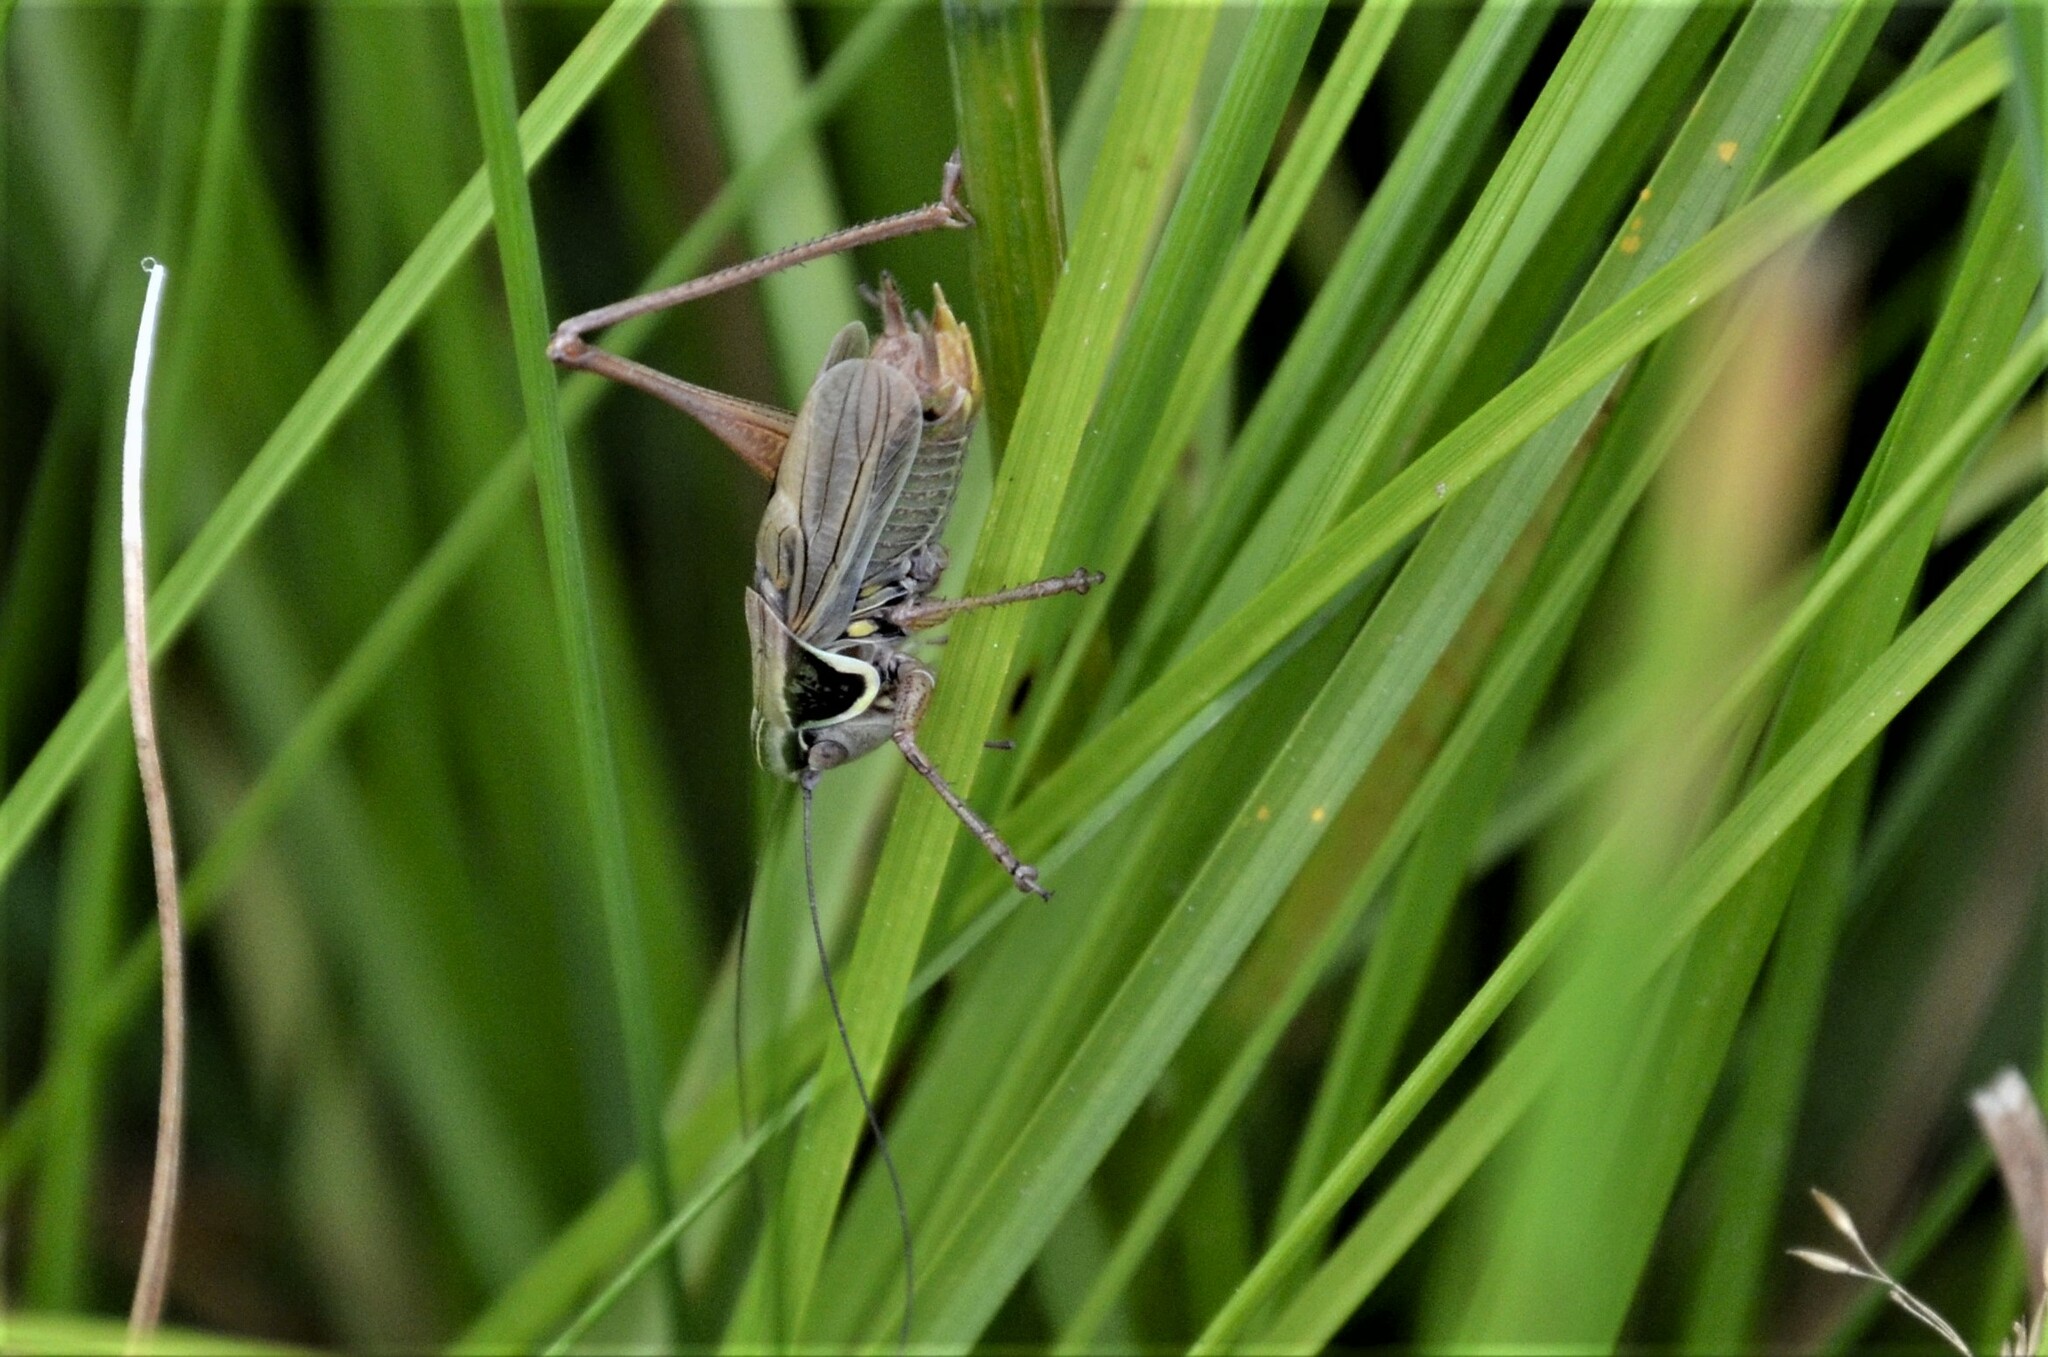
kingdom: Animalia
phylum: Arthropoda
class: Insecta
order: Orthoptera
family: Tettigoniidae
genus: Roeseliana
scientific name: Roeseliana roeselii
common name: Roesel's bush cricket
